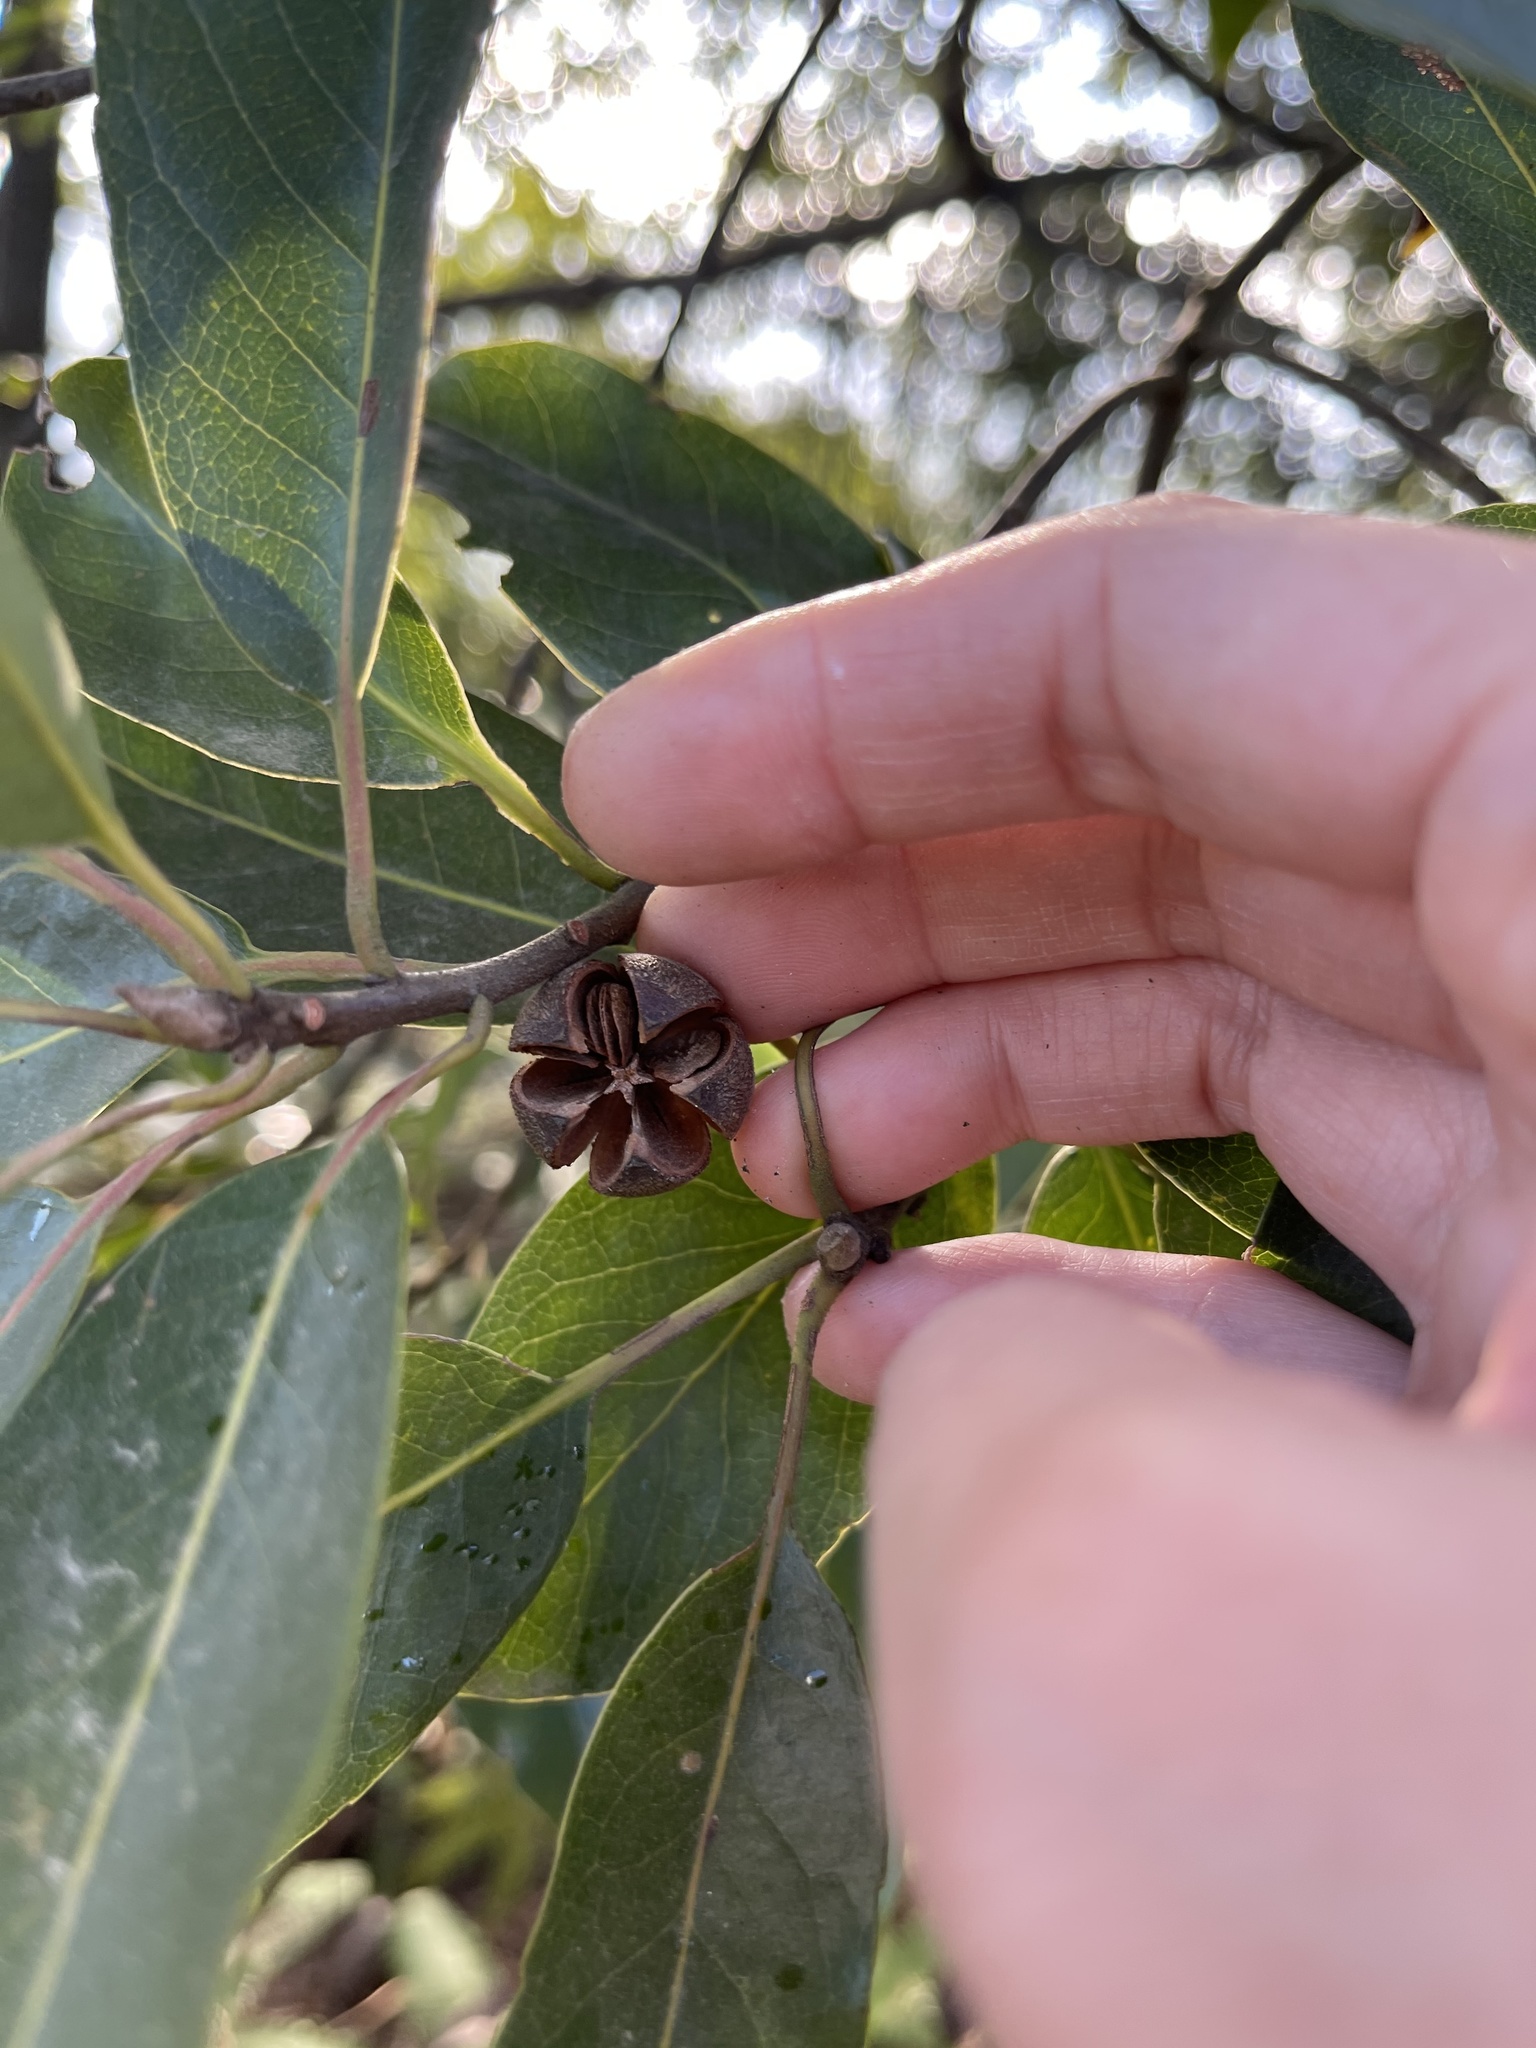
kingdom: Plantae
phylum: Tracheophyta
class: Magnoliopsida
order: Ericales
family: Theaceae
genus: Schima
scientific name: Schima superba
